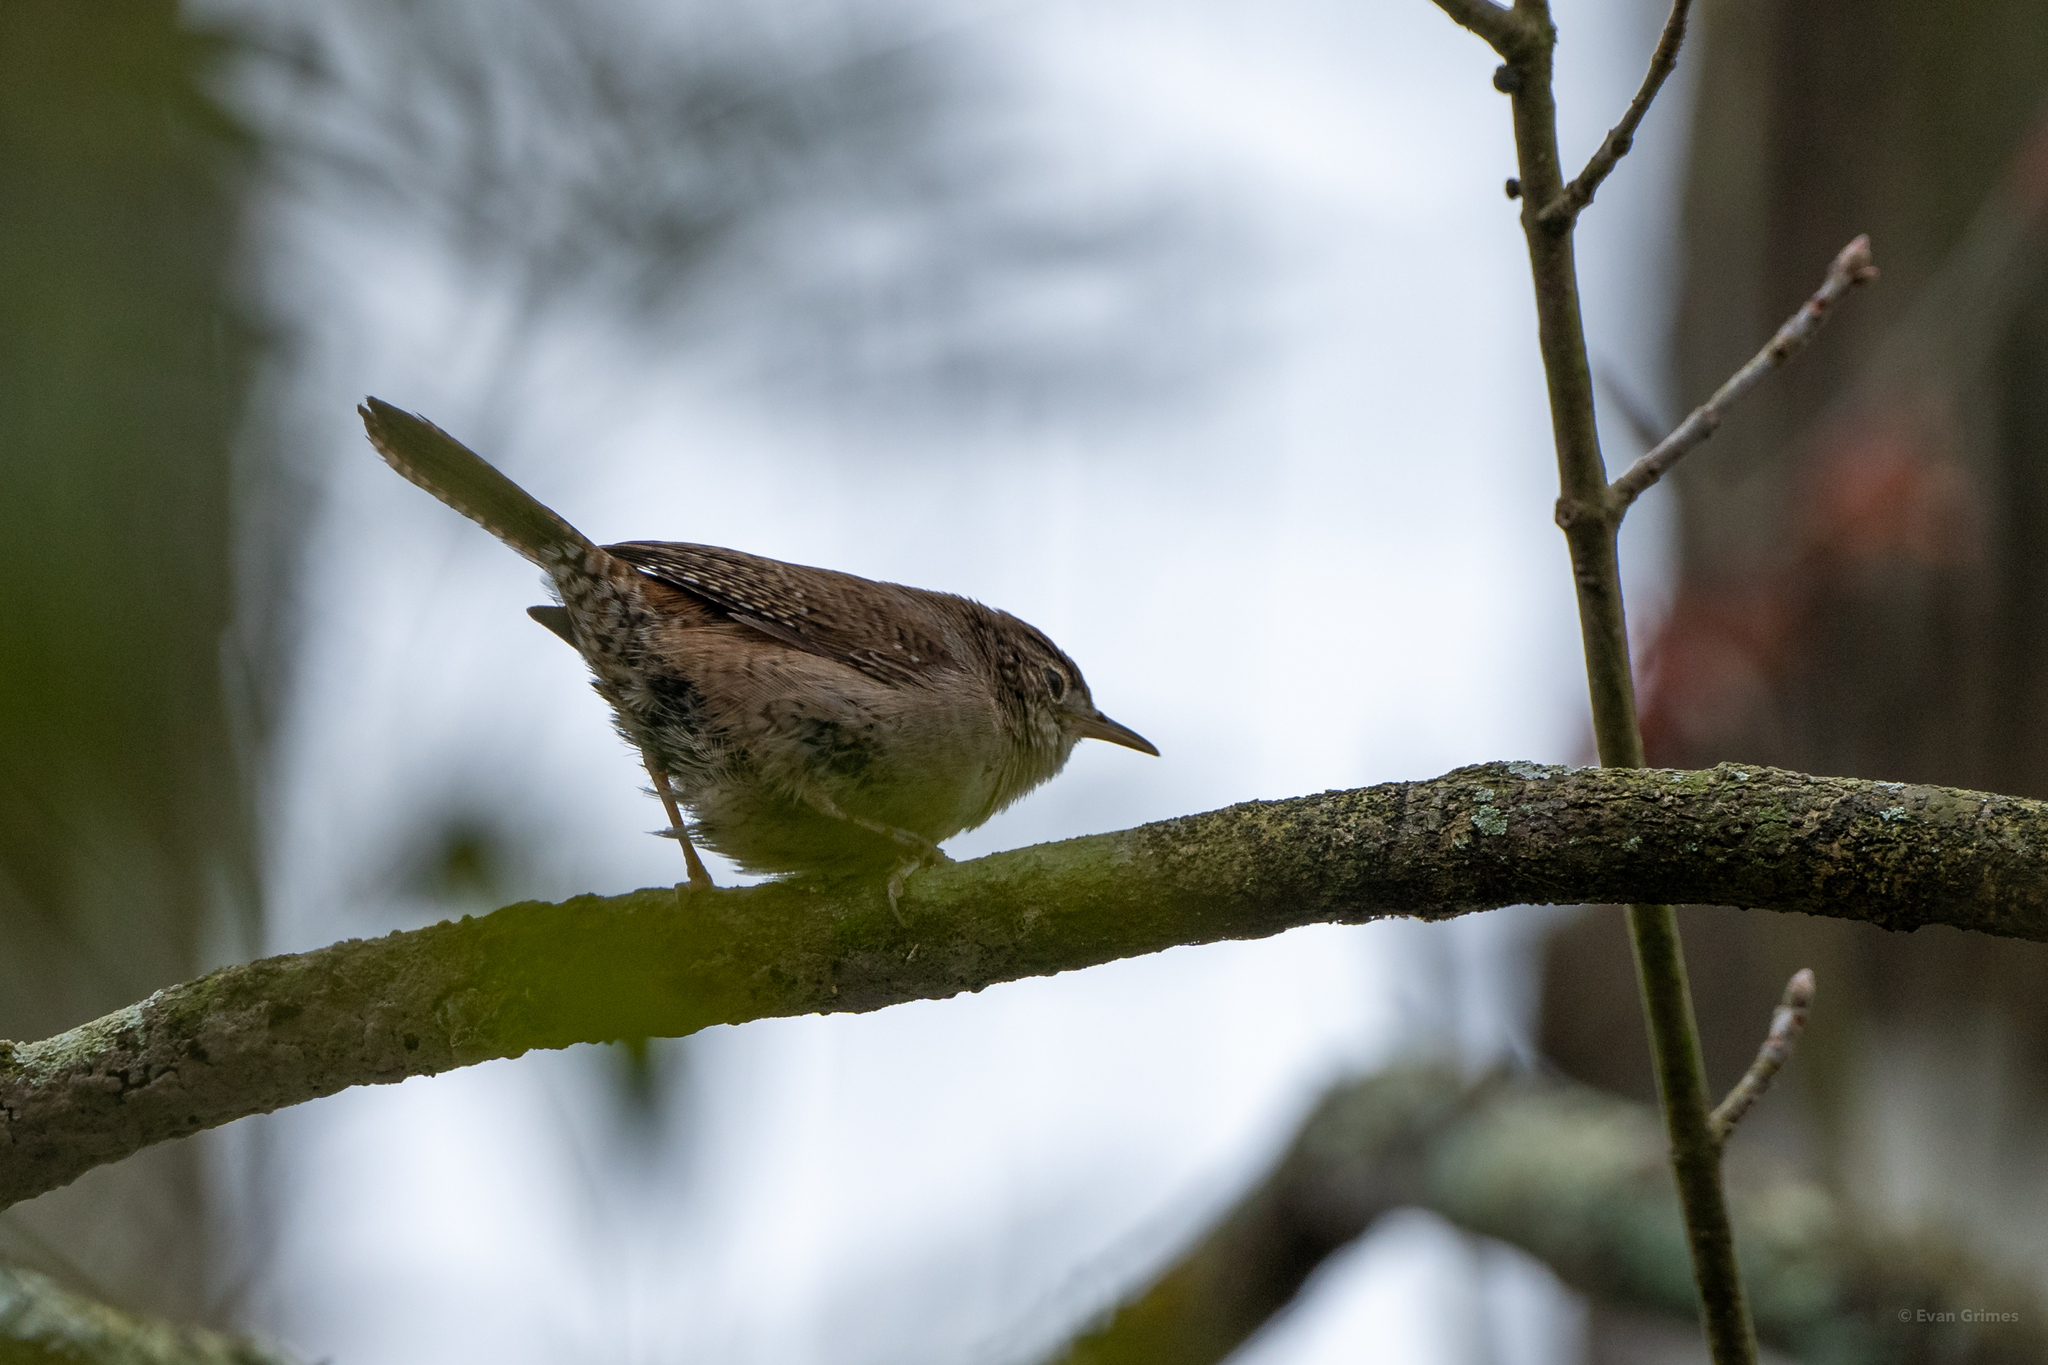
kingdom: Animalia
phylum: Chordata
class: Aves
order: Passeriformes
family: Troglodytidae
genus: Troglodytes
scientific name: Troglodytes aedon
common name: House wren
